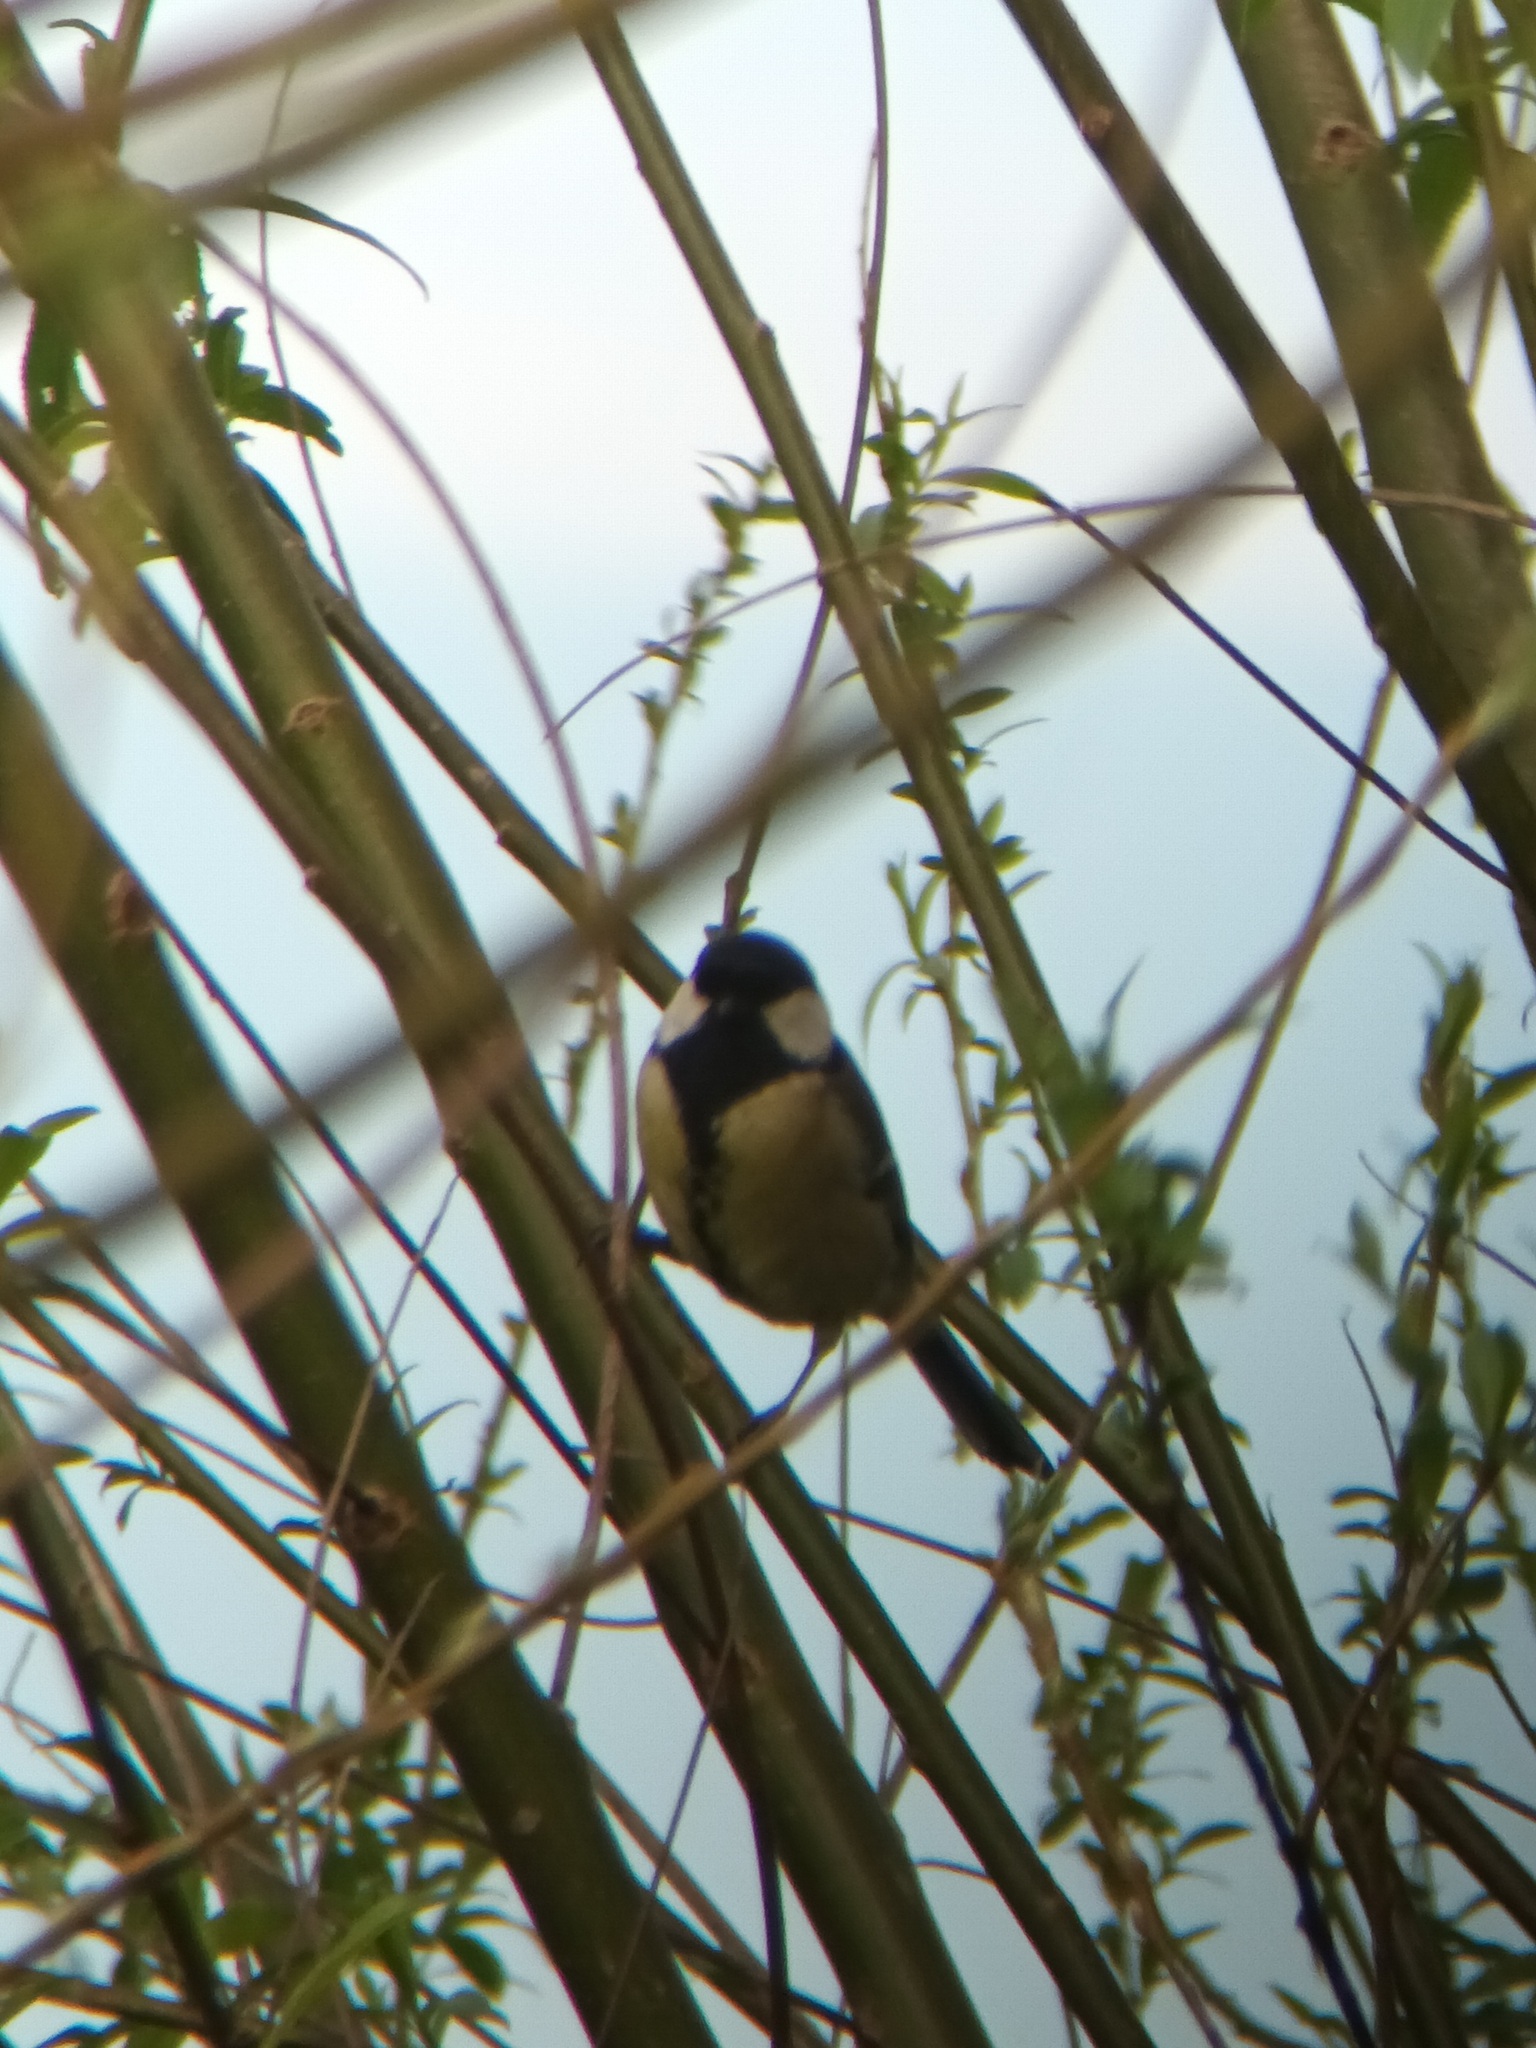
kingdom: Animalia
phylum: Chordata
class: Aves
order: Passeriformes
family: Paridae
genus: Parus
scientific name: Parus major
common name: Great tit
